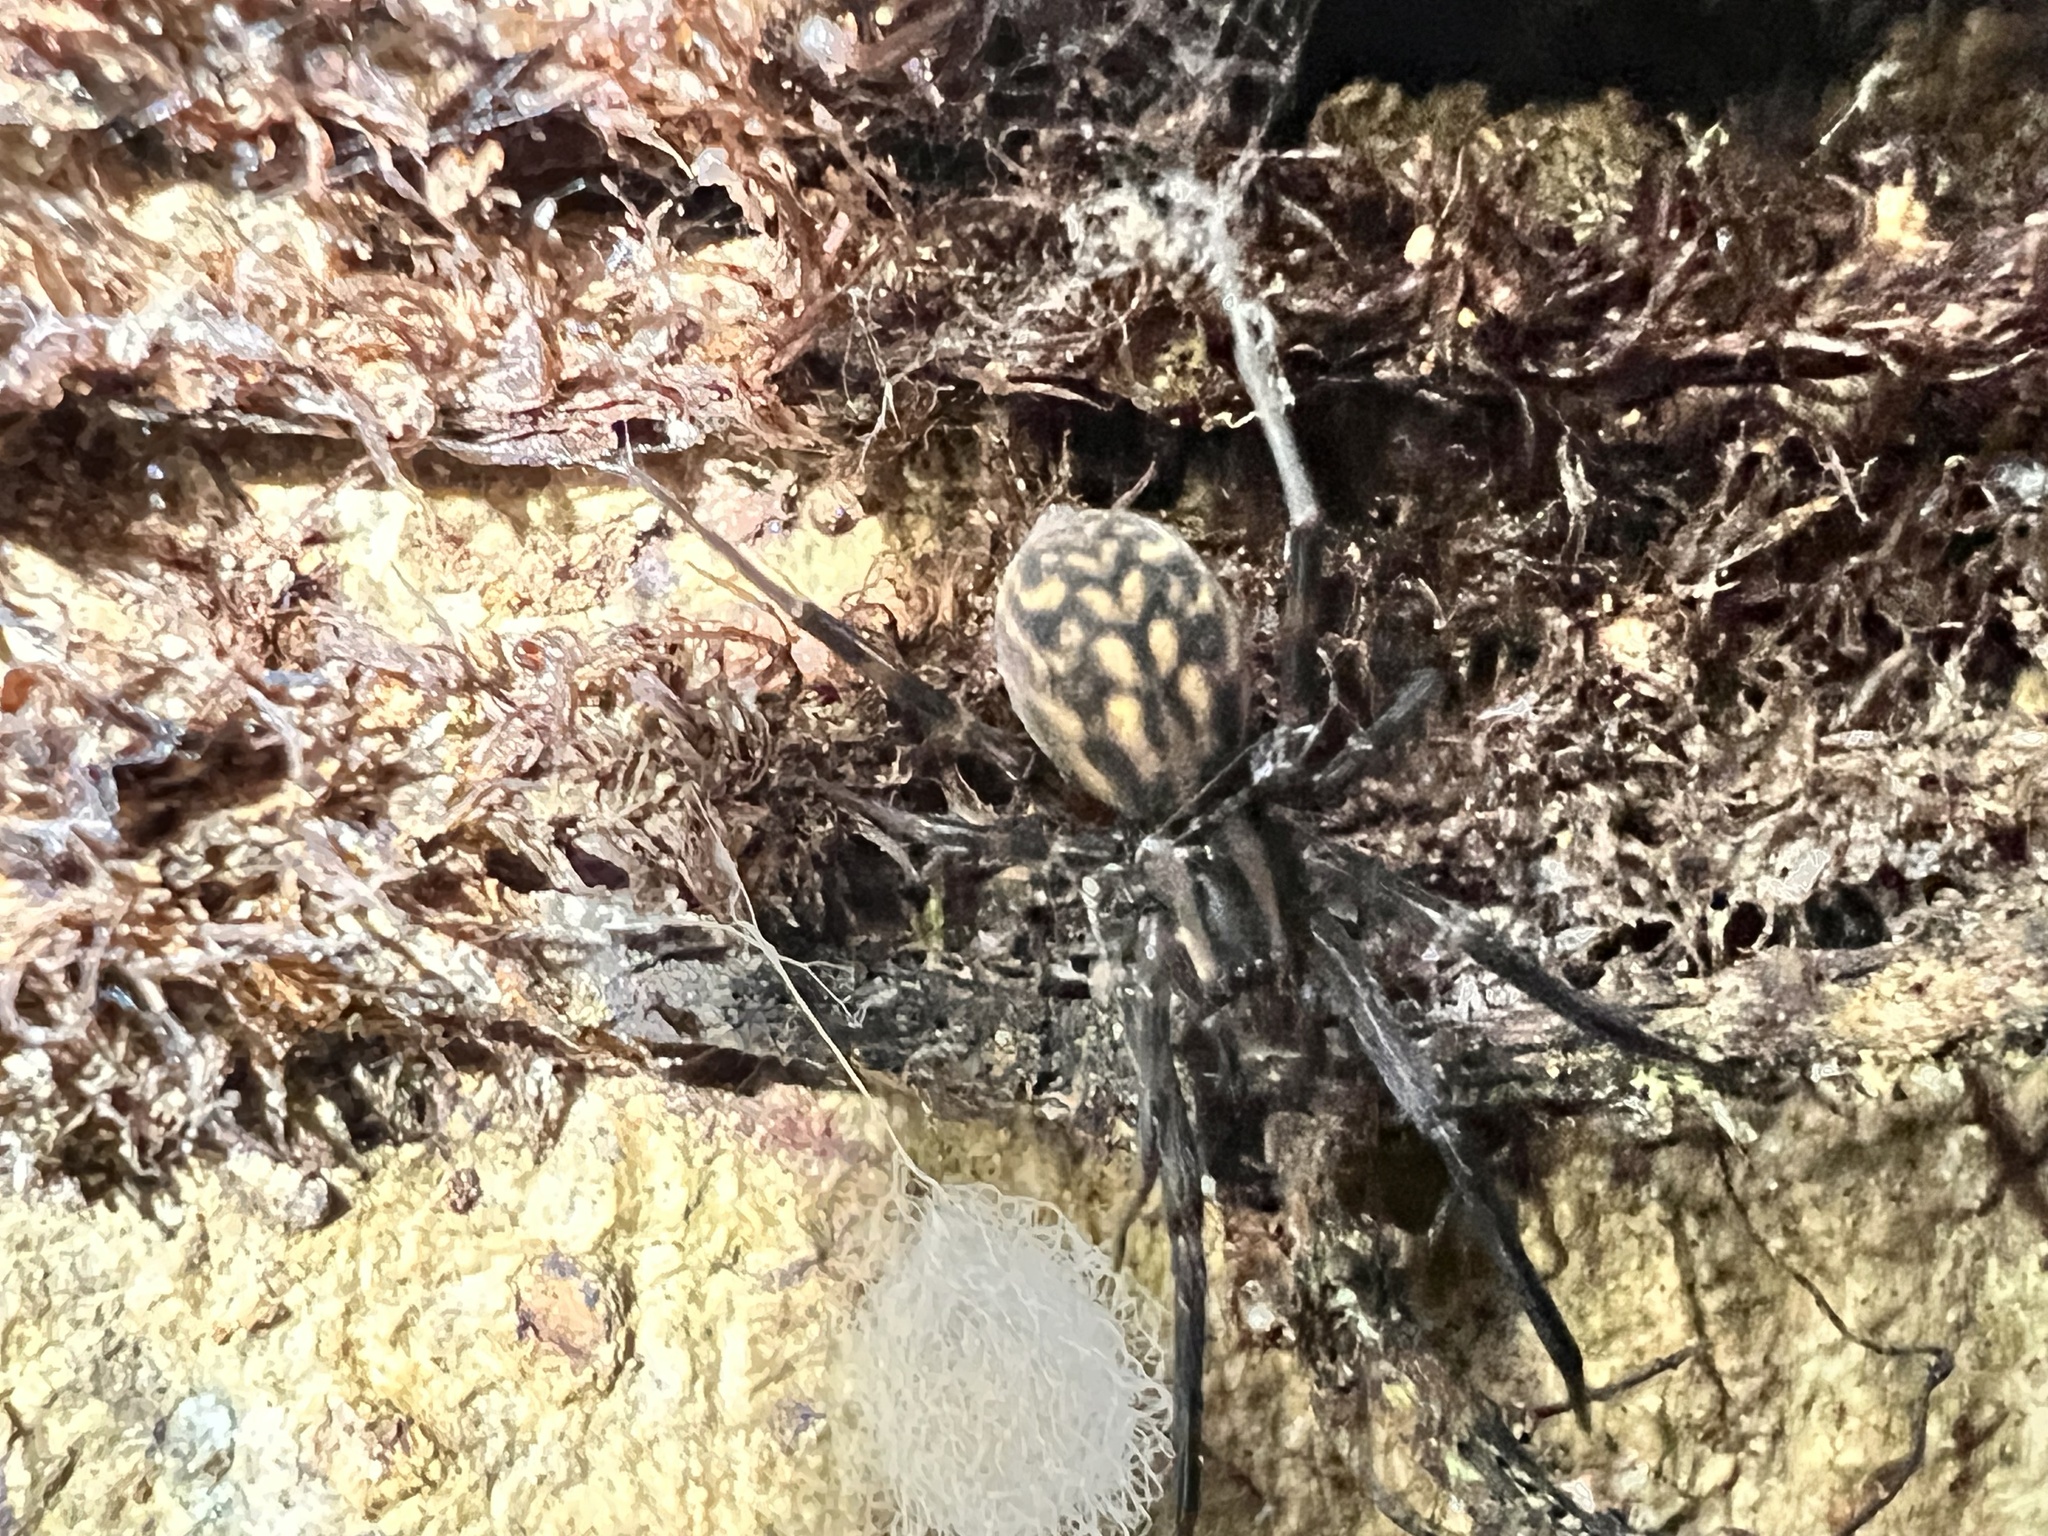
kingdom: Animalia
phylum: Arthropoda
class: Arachnida
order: Araneae
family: Desidae
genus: Cambridgea
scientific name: Cambridgea plagiata
